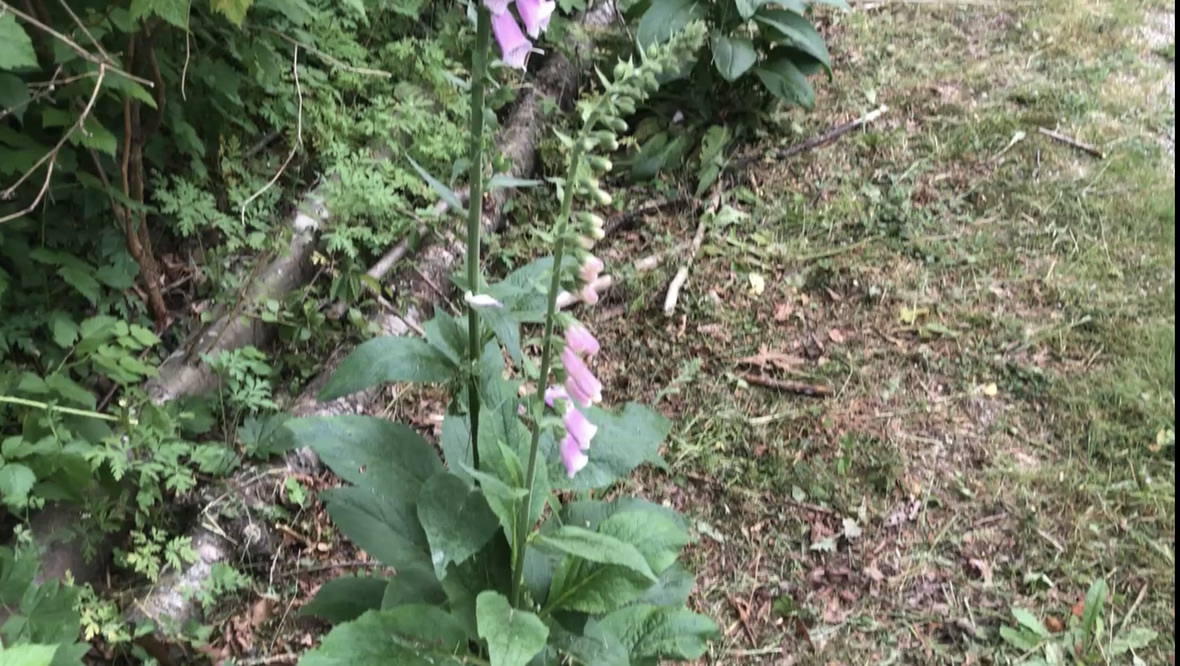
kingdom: Plantae
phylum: Tracheophyta
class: Magnoliopsida
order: Lamiales
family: Plantaginaceae
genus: Digitalis
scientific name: Digitalis purpurea
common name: Foxglove
